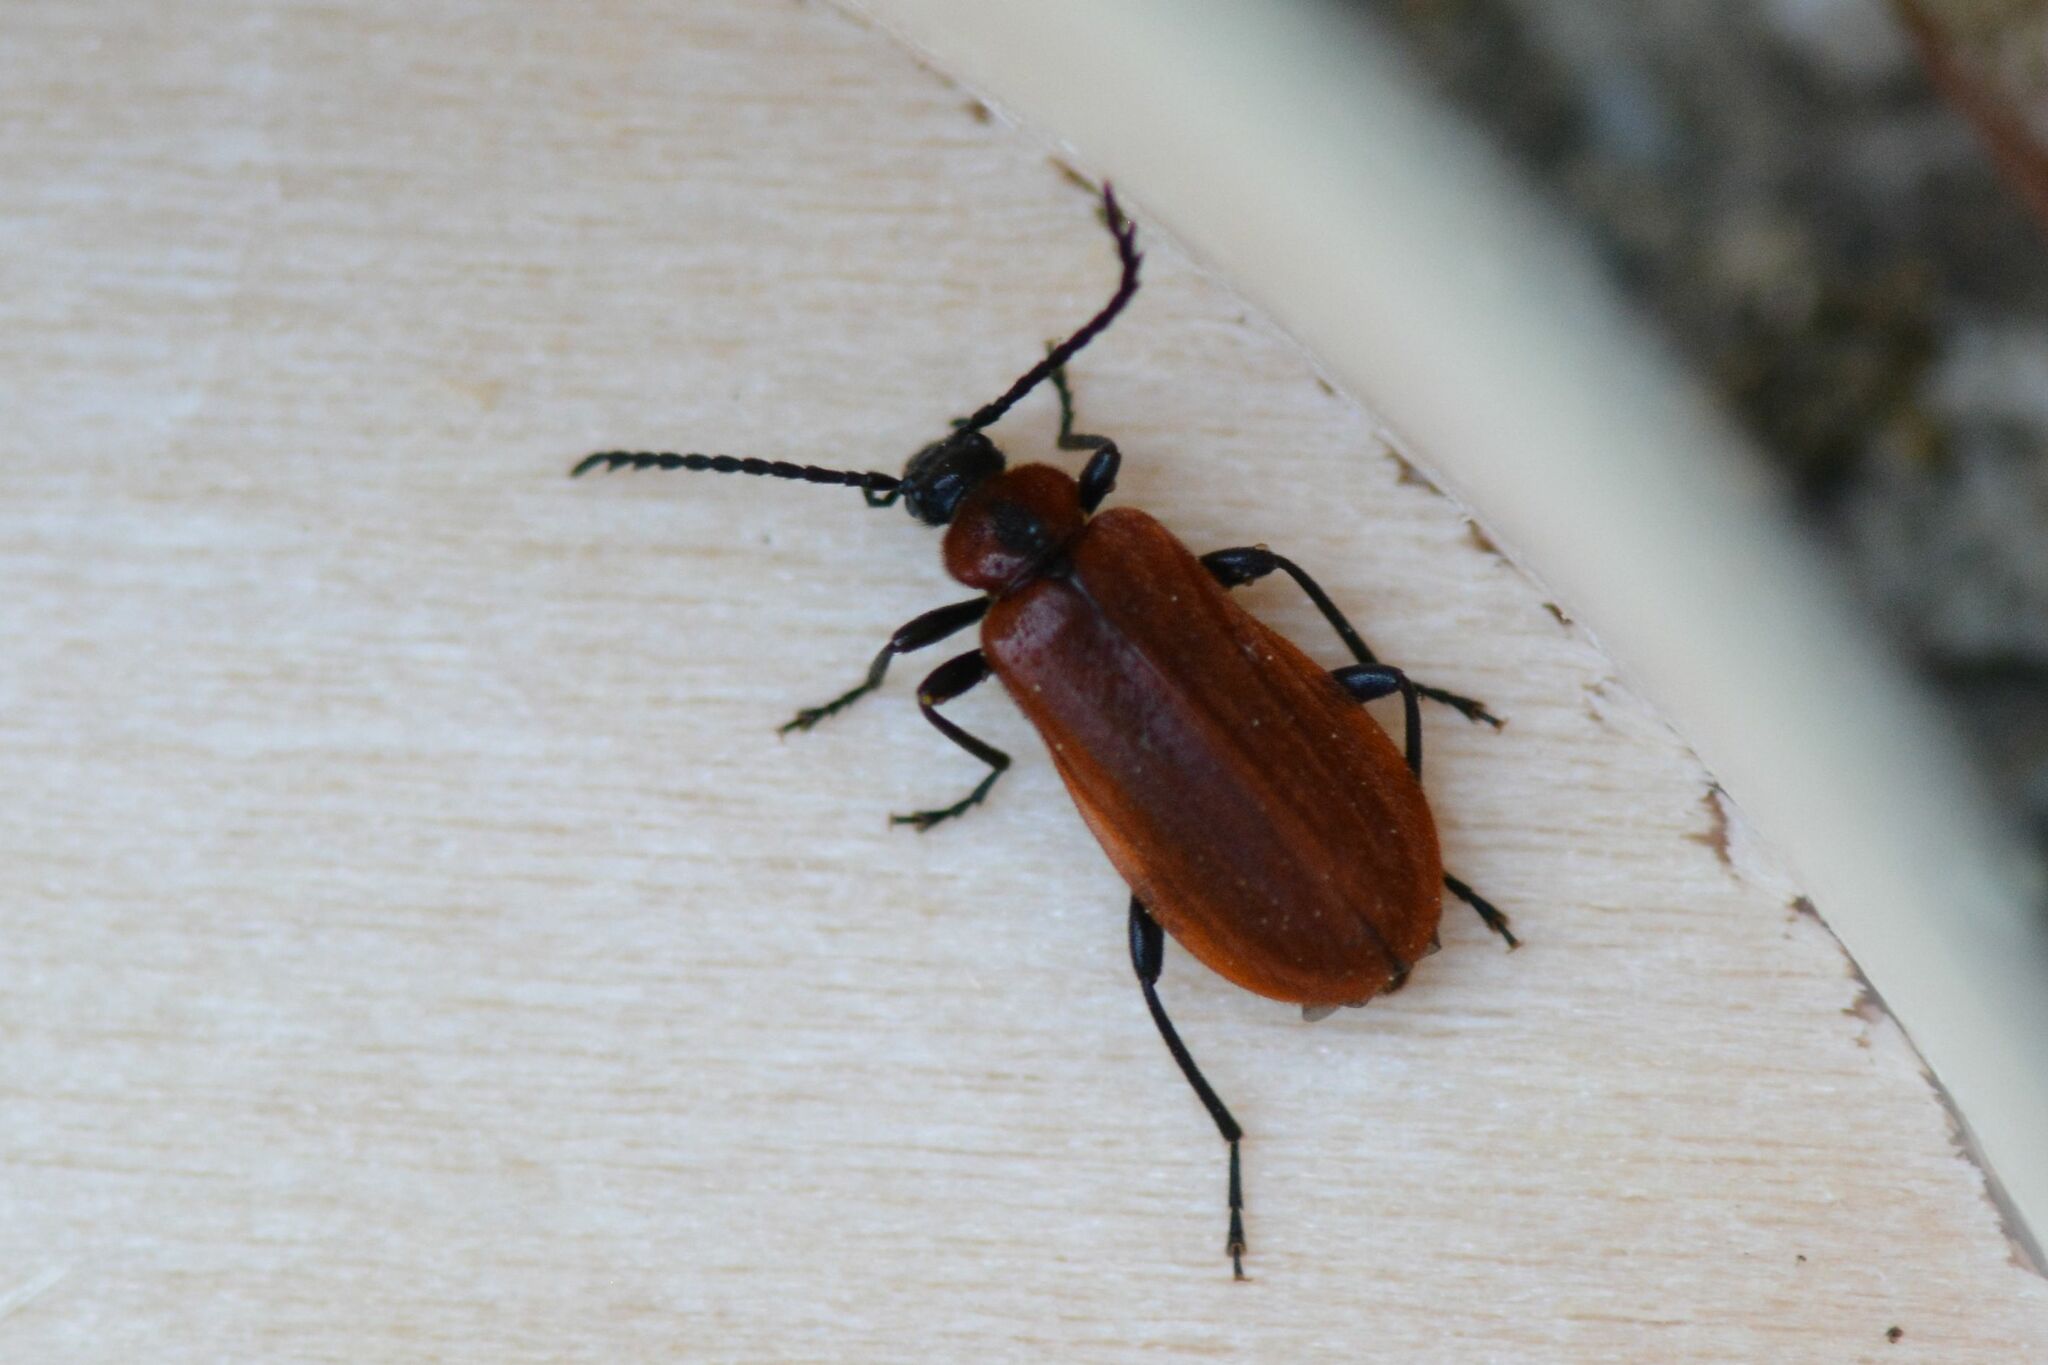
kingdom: Animalia
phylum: Arthropoda
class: Insecta
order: Coleoptera
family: Pyrochroidae
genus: Schizotus
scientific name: Schizotus pectinicornis
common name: Scarce cardinal beetle
